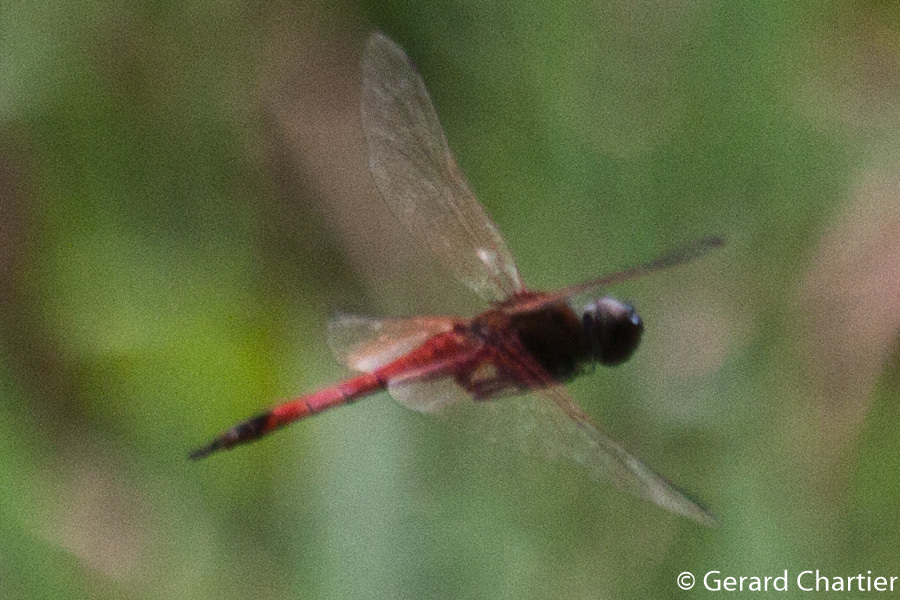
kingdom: Animalia
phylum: Arthropoda
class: Insecta
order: Odonata
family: Libellulidae
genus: Tramea
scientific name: Tramea transmarina
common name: Red glider dragonfly
